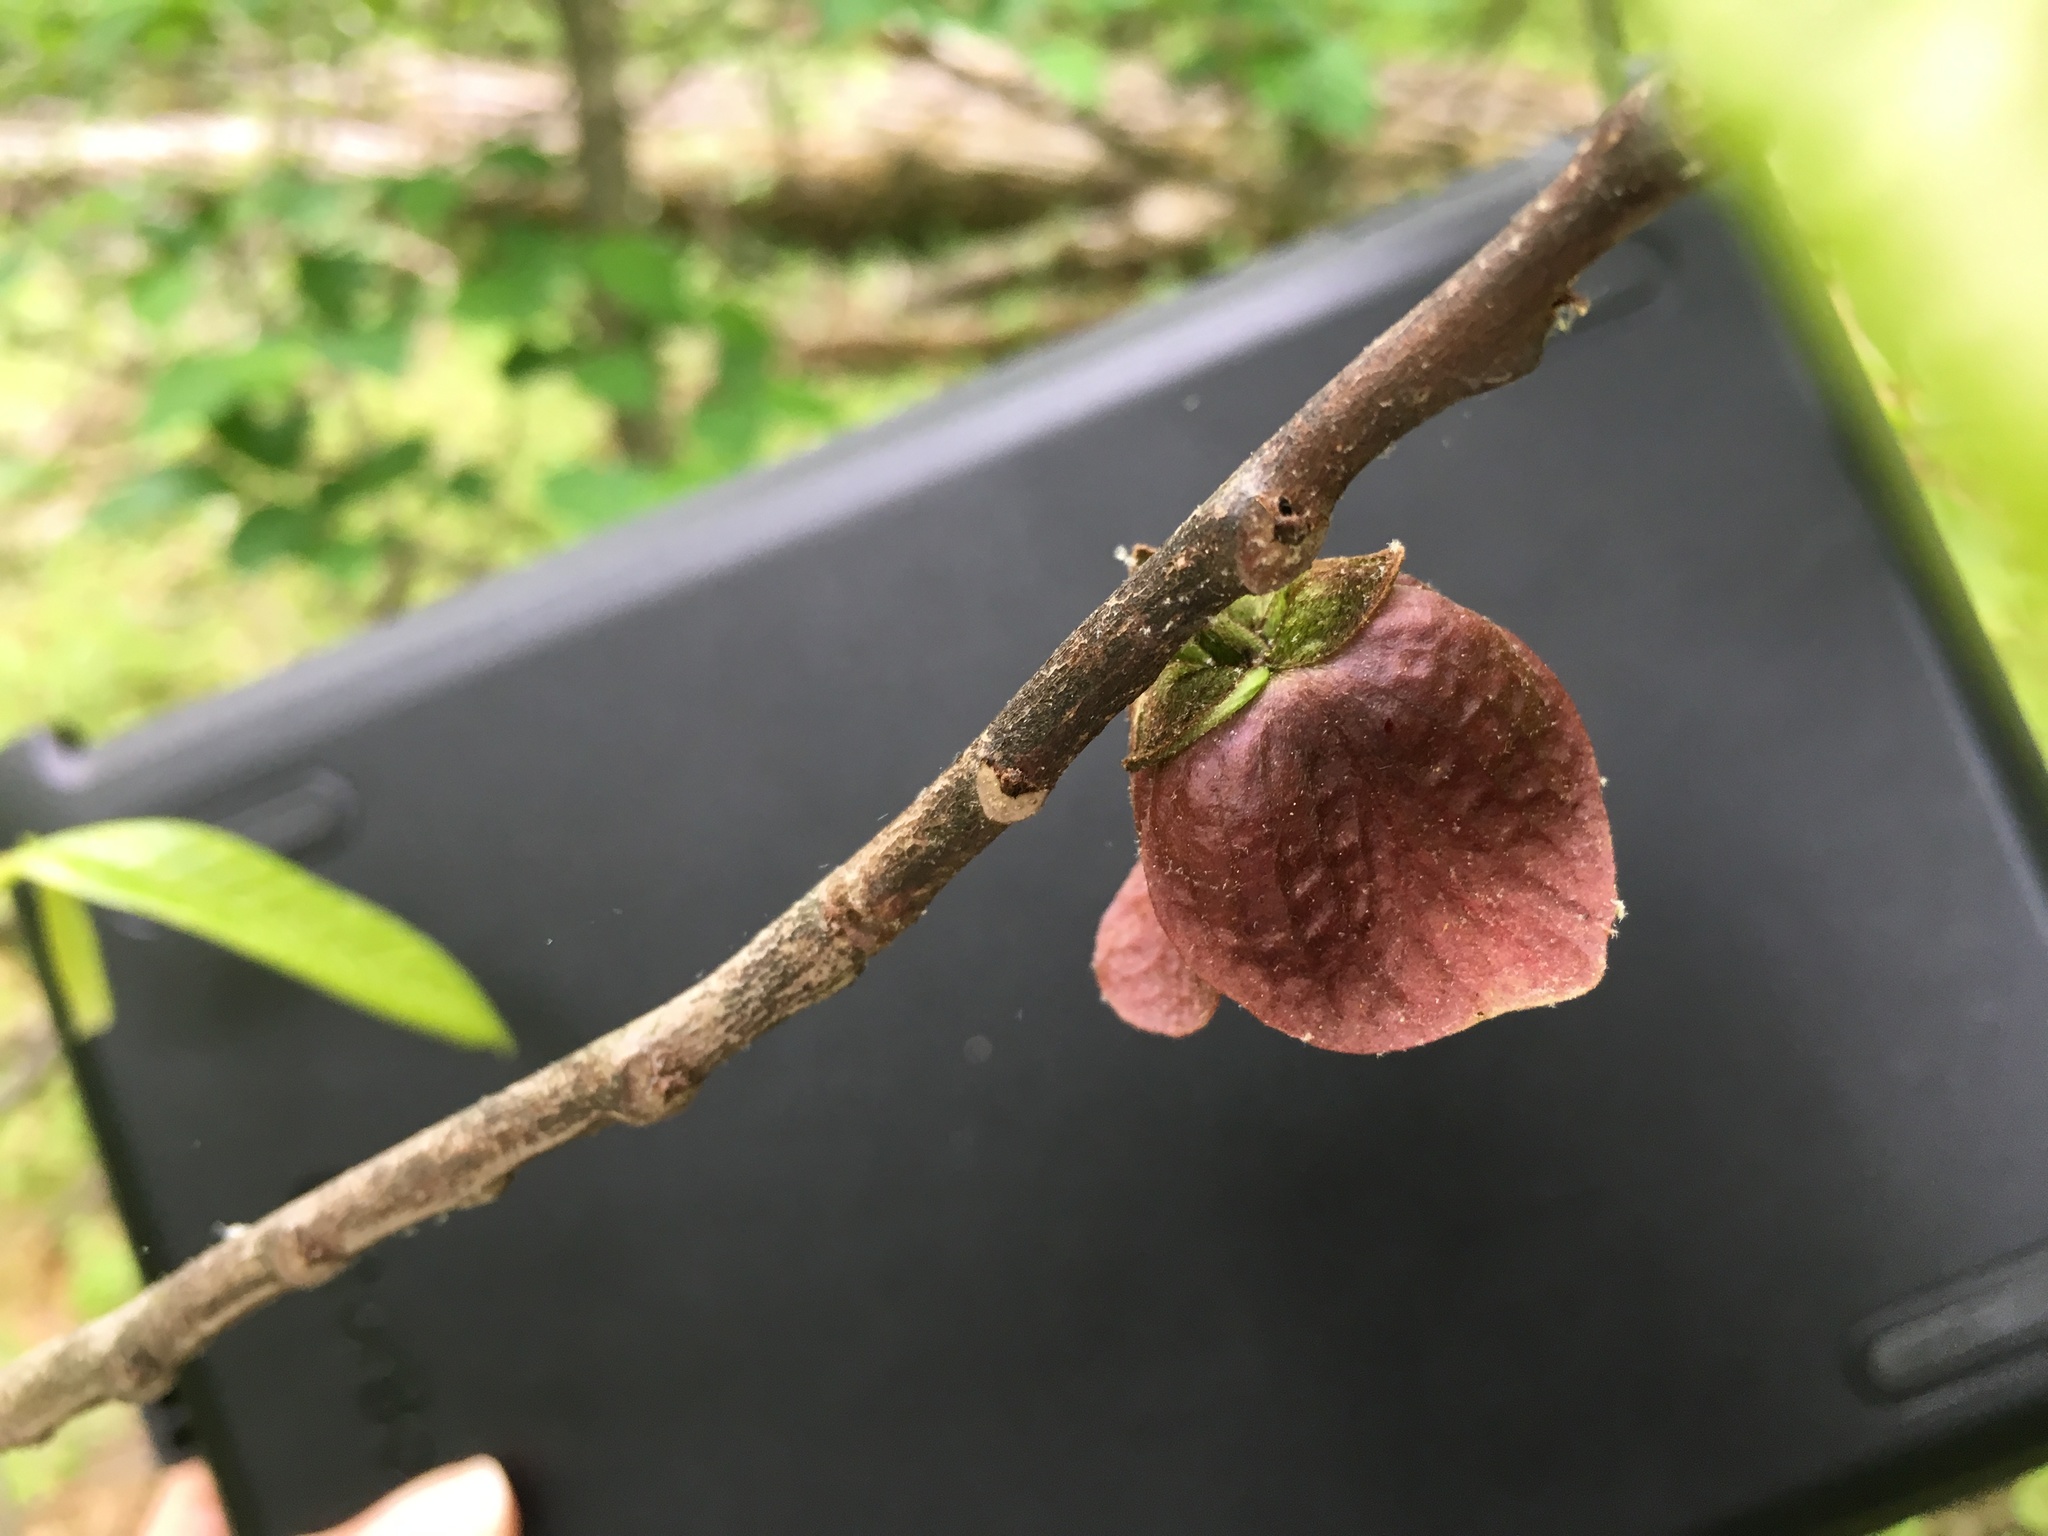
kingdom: Plantae
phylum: Tracheophyta
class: Magnoliopsida
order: Magnoliales
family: Annonaceae
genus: Asimina
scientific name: Asimina triloba
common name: Dog-banana
